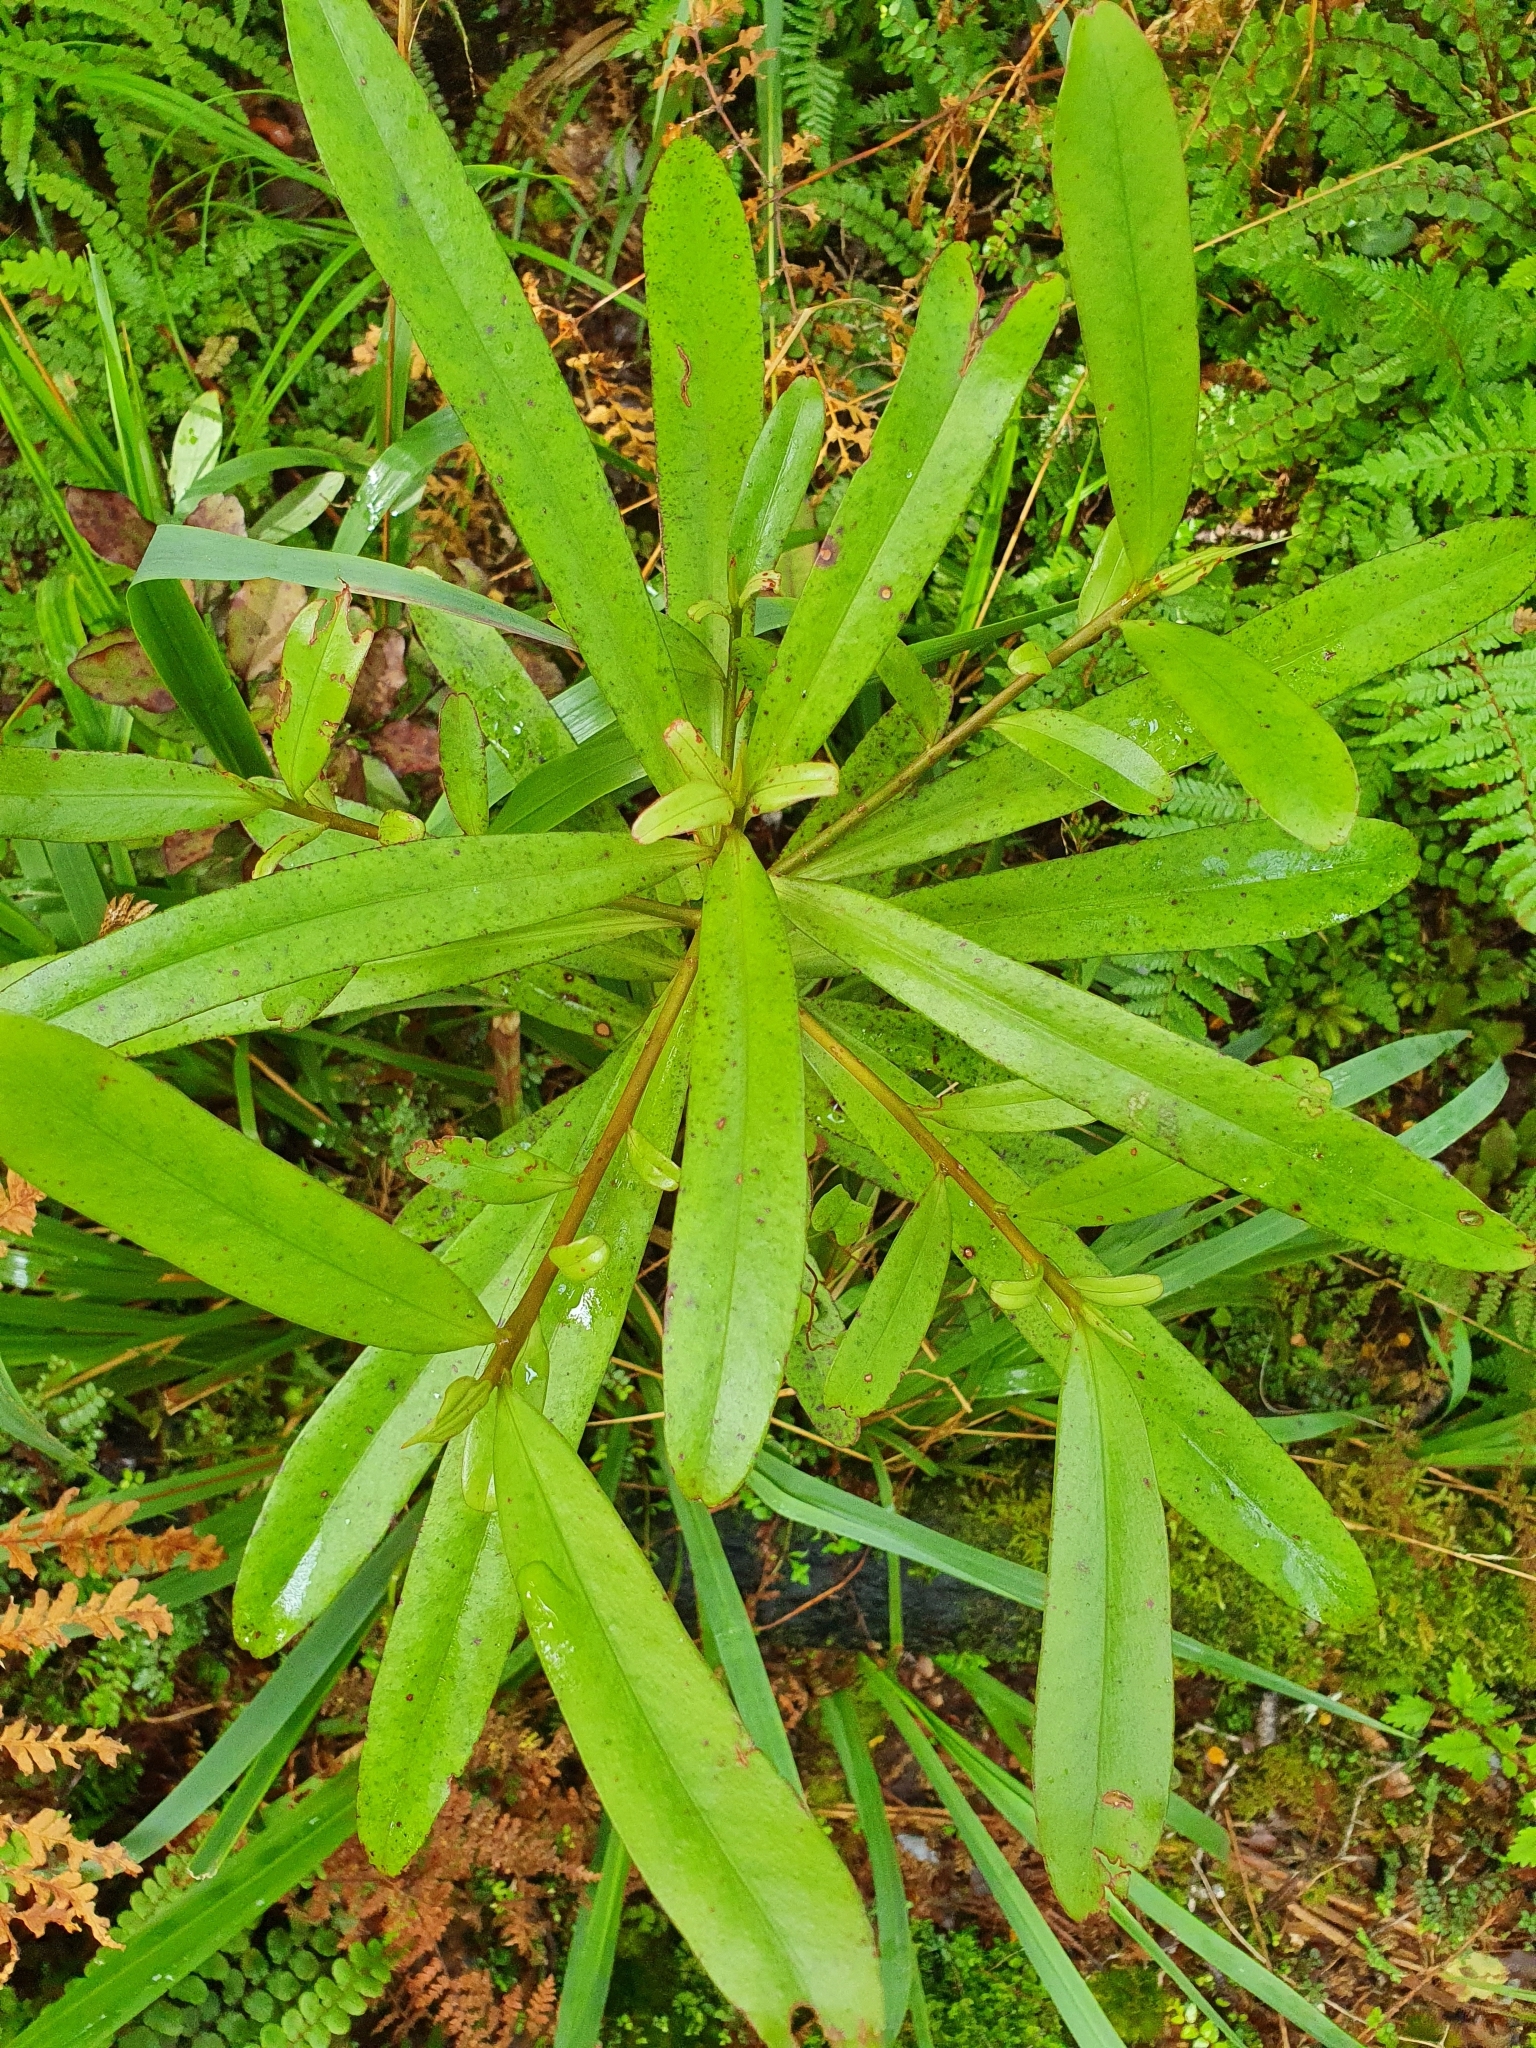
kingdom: Plantae
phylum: Tracheophyta
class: Magnoliopsida
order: Ericales
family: Primulaceae
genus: Myrsine
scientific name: Myrsine salicina
